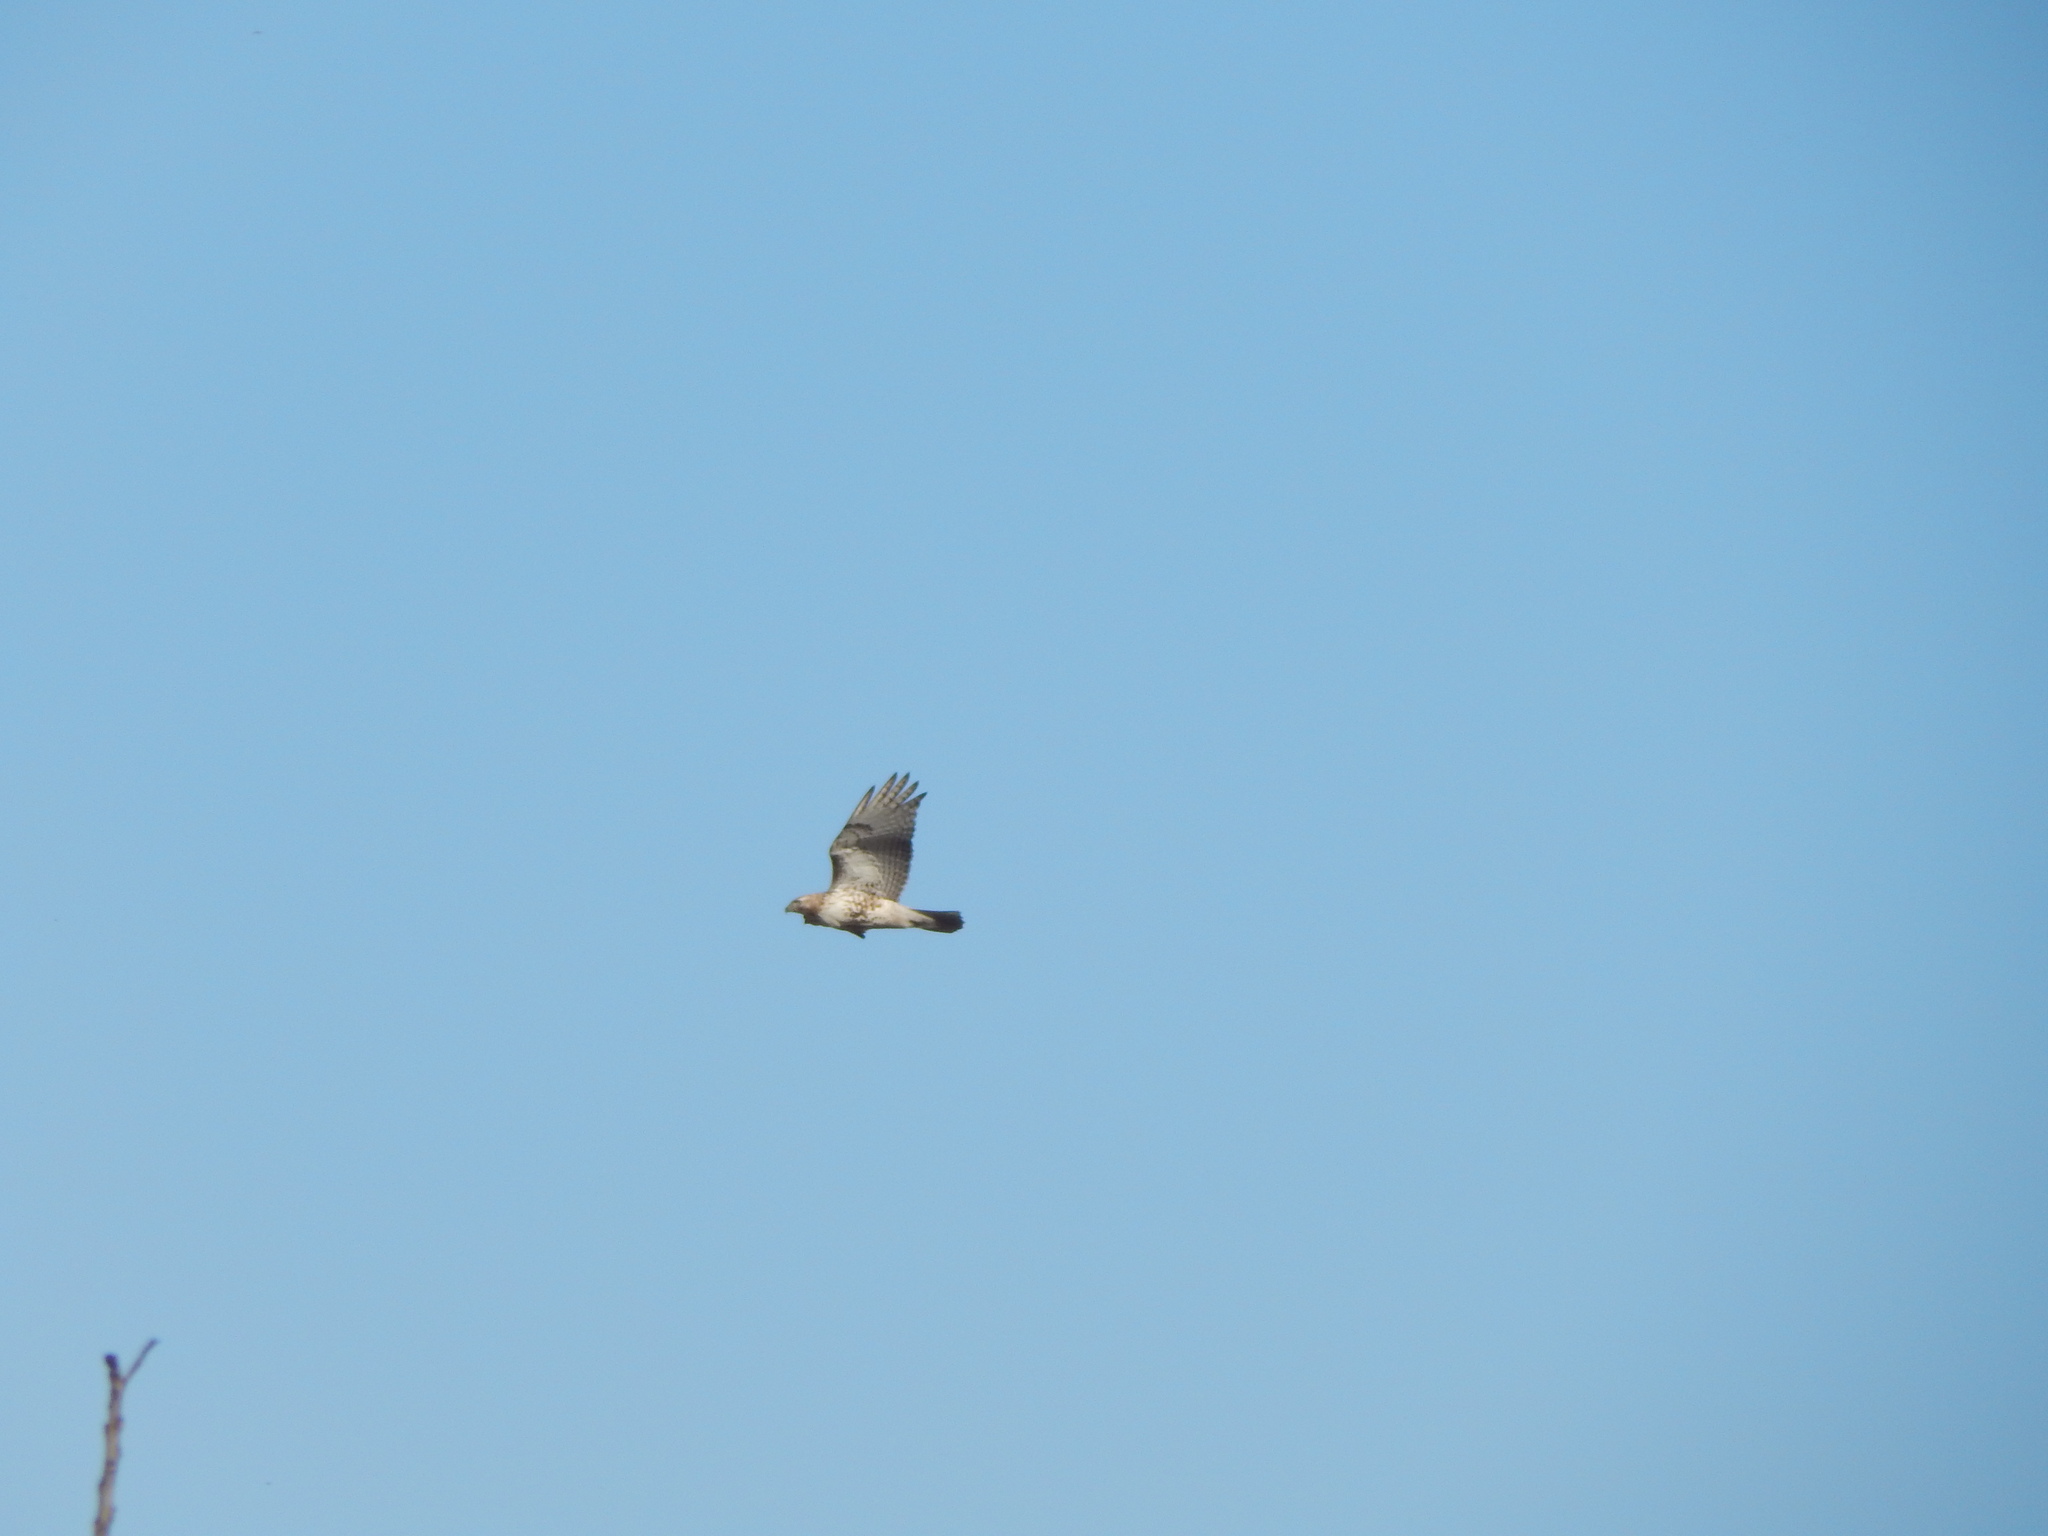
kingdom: Animalia
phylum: Chordata
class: Aves
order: Accipitriformes
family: Accipitridae
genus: Buteo
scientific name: Buteo jamaicensis
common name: Red-tailed hawk
